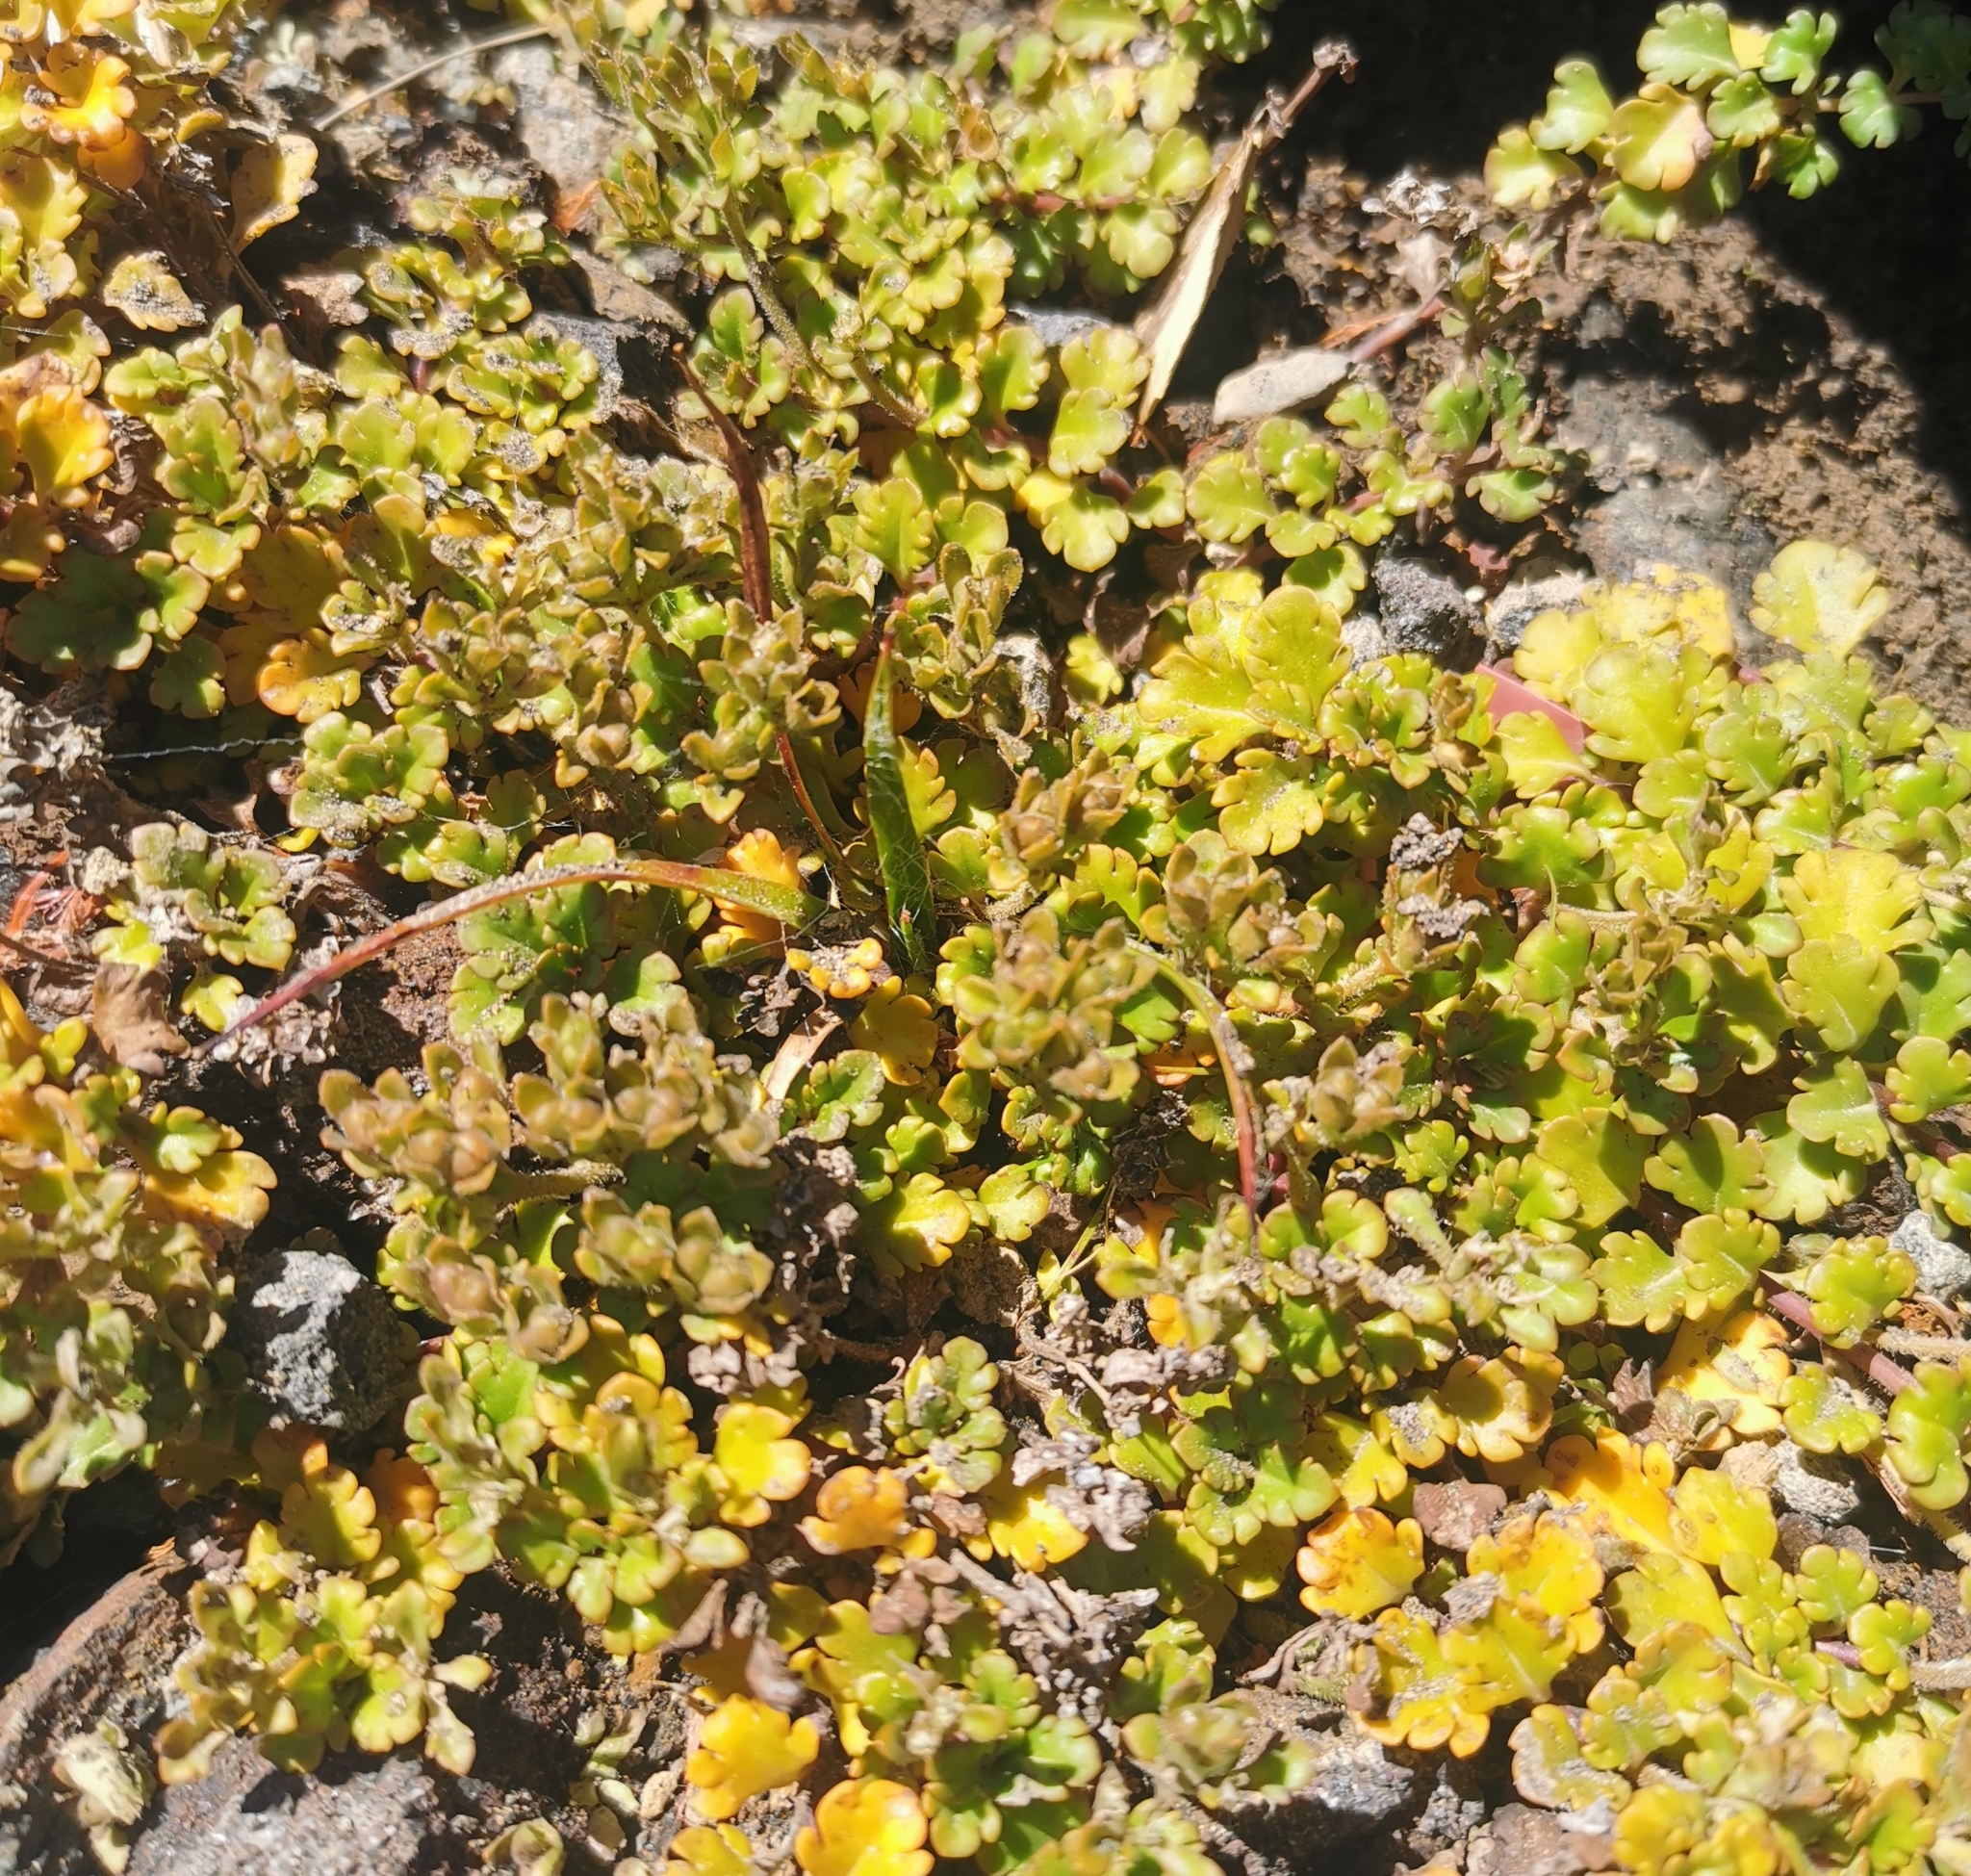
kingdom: Plantae
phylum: Tracheophyta
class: Magnoliopsida
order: Lamiales
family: Plantaginaceae
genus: Veronica
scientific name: Veronica spathulata
